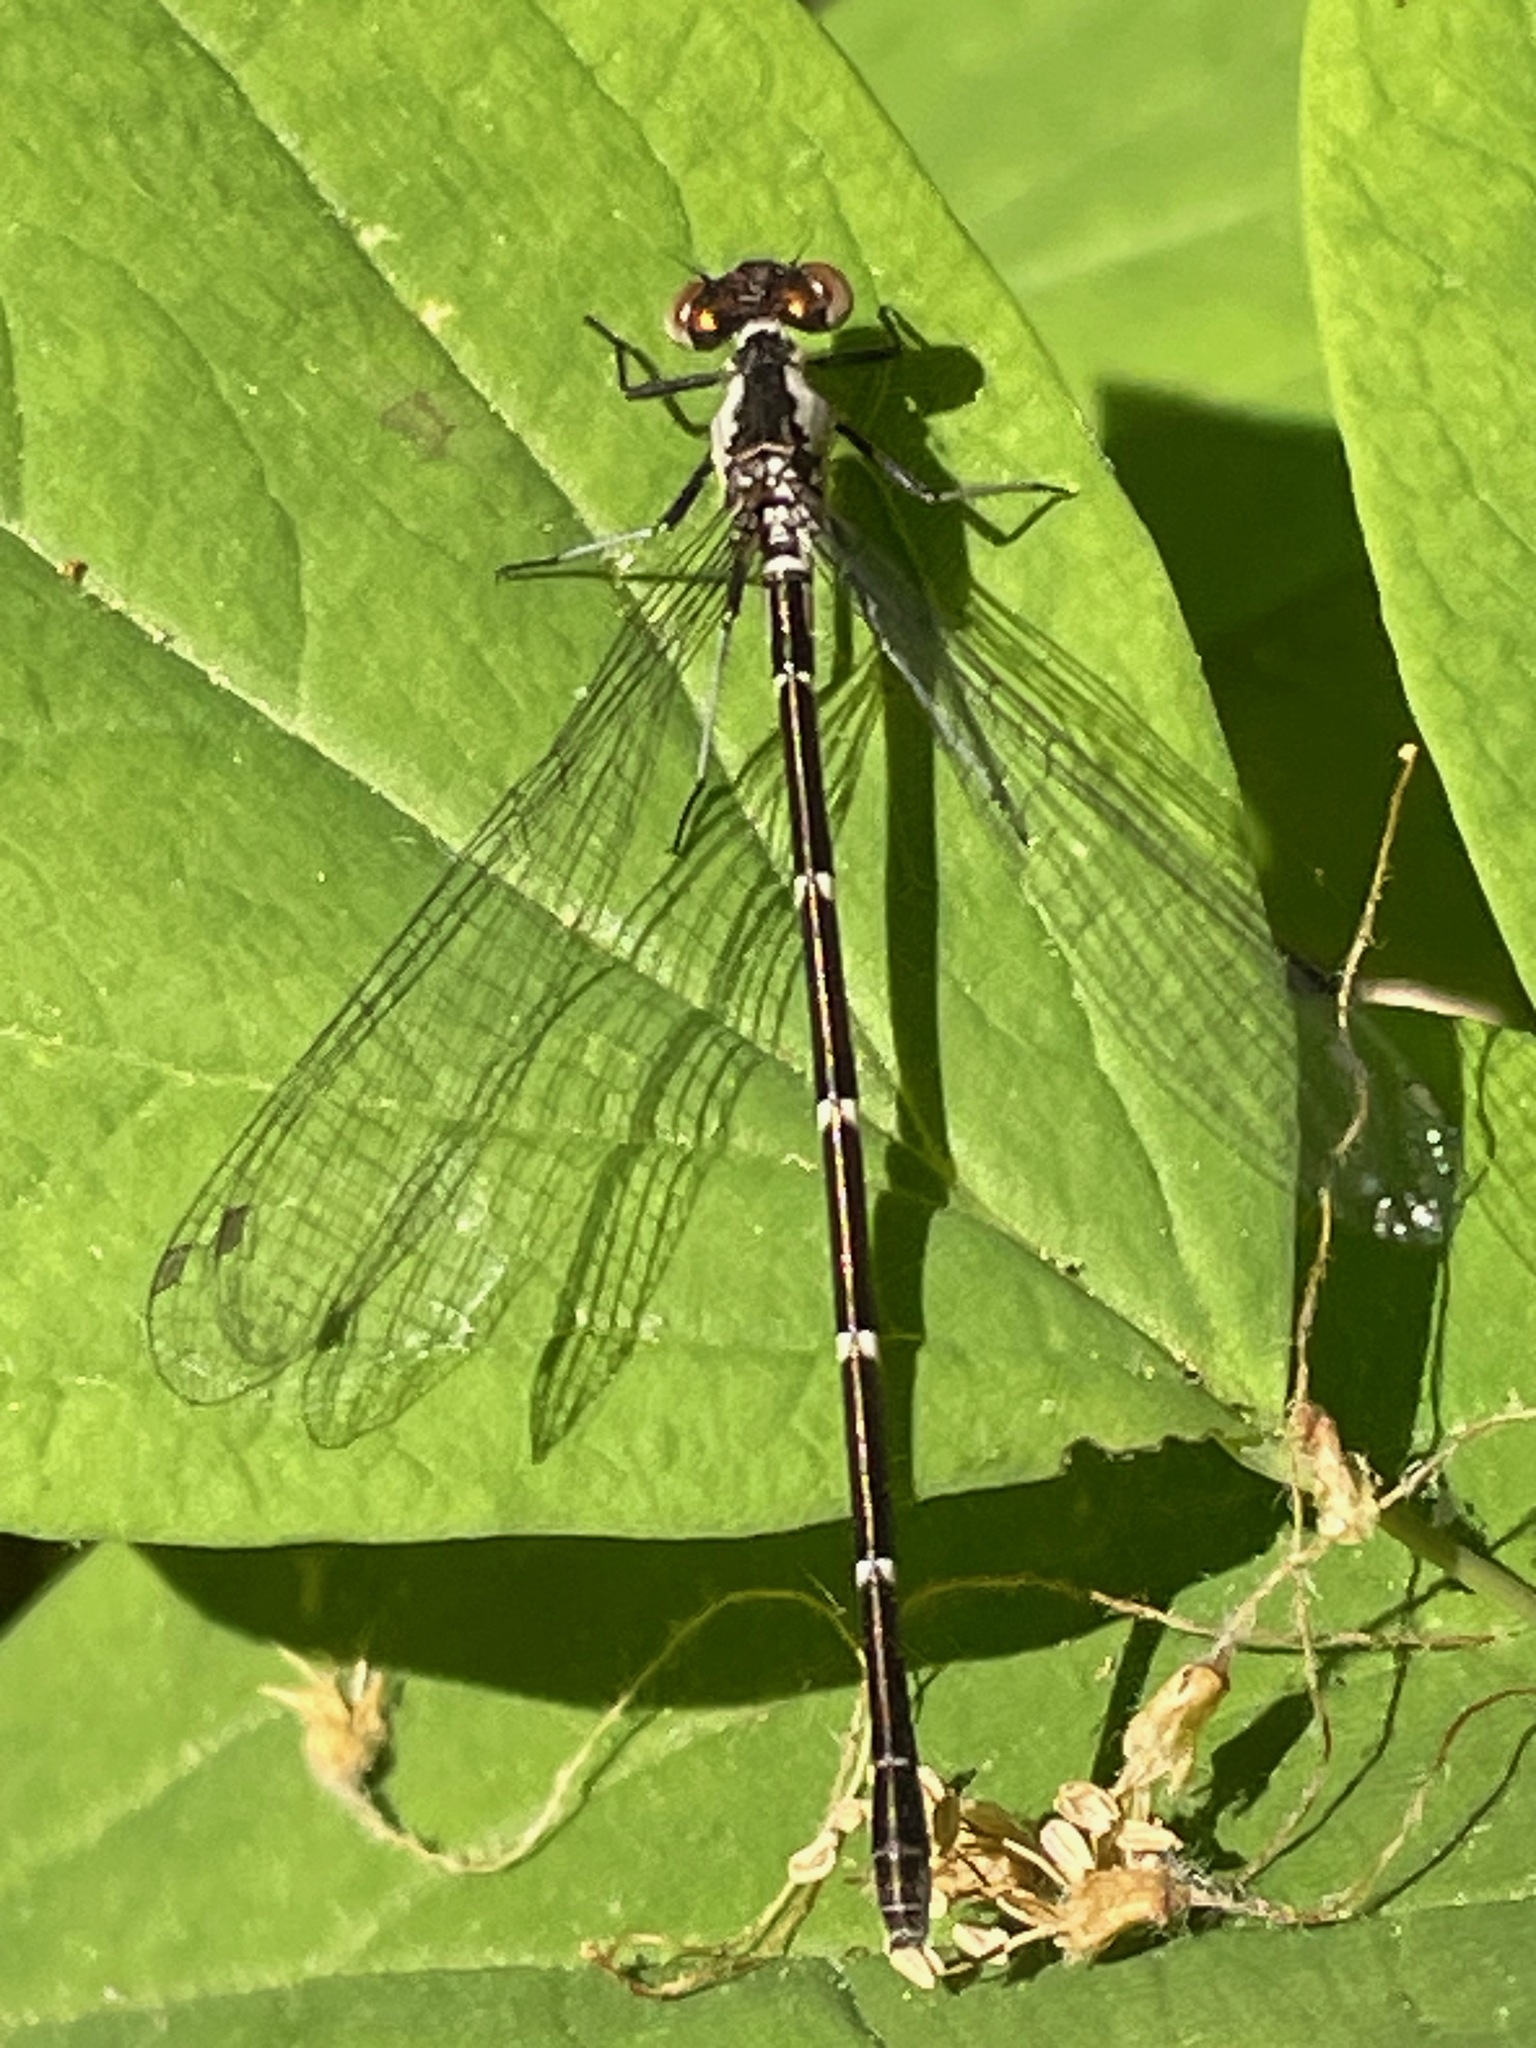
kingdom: Animalia
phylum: Arthropoda
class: Insecta
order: Odonata
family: Coenagrionidae
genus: Chromagrion
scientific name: Chromagrion conditum
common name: Aurora damsel
